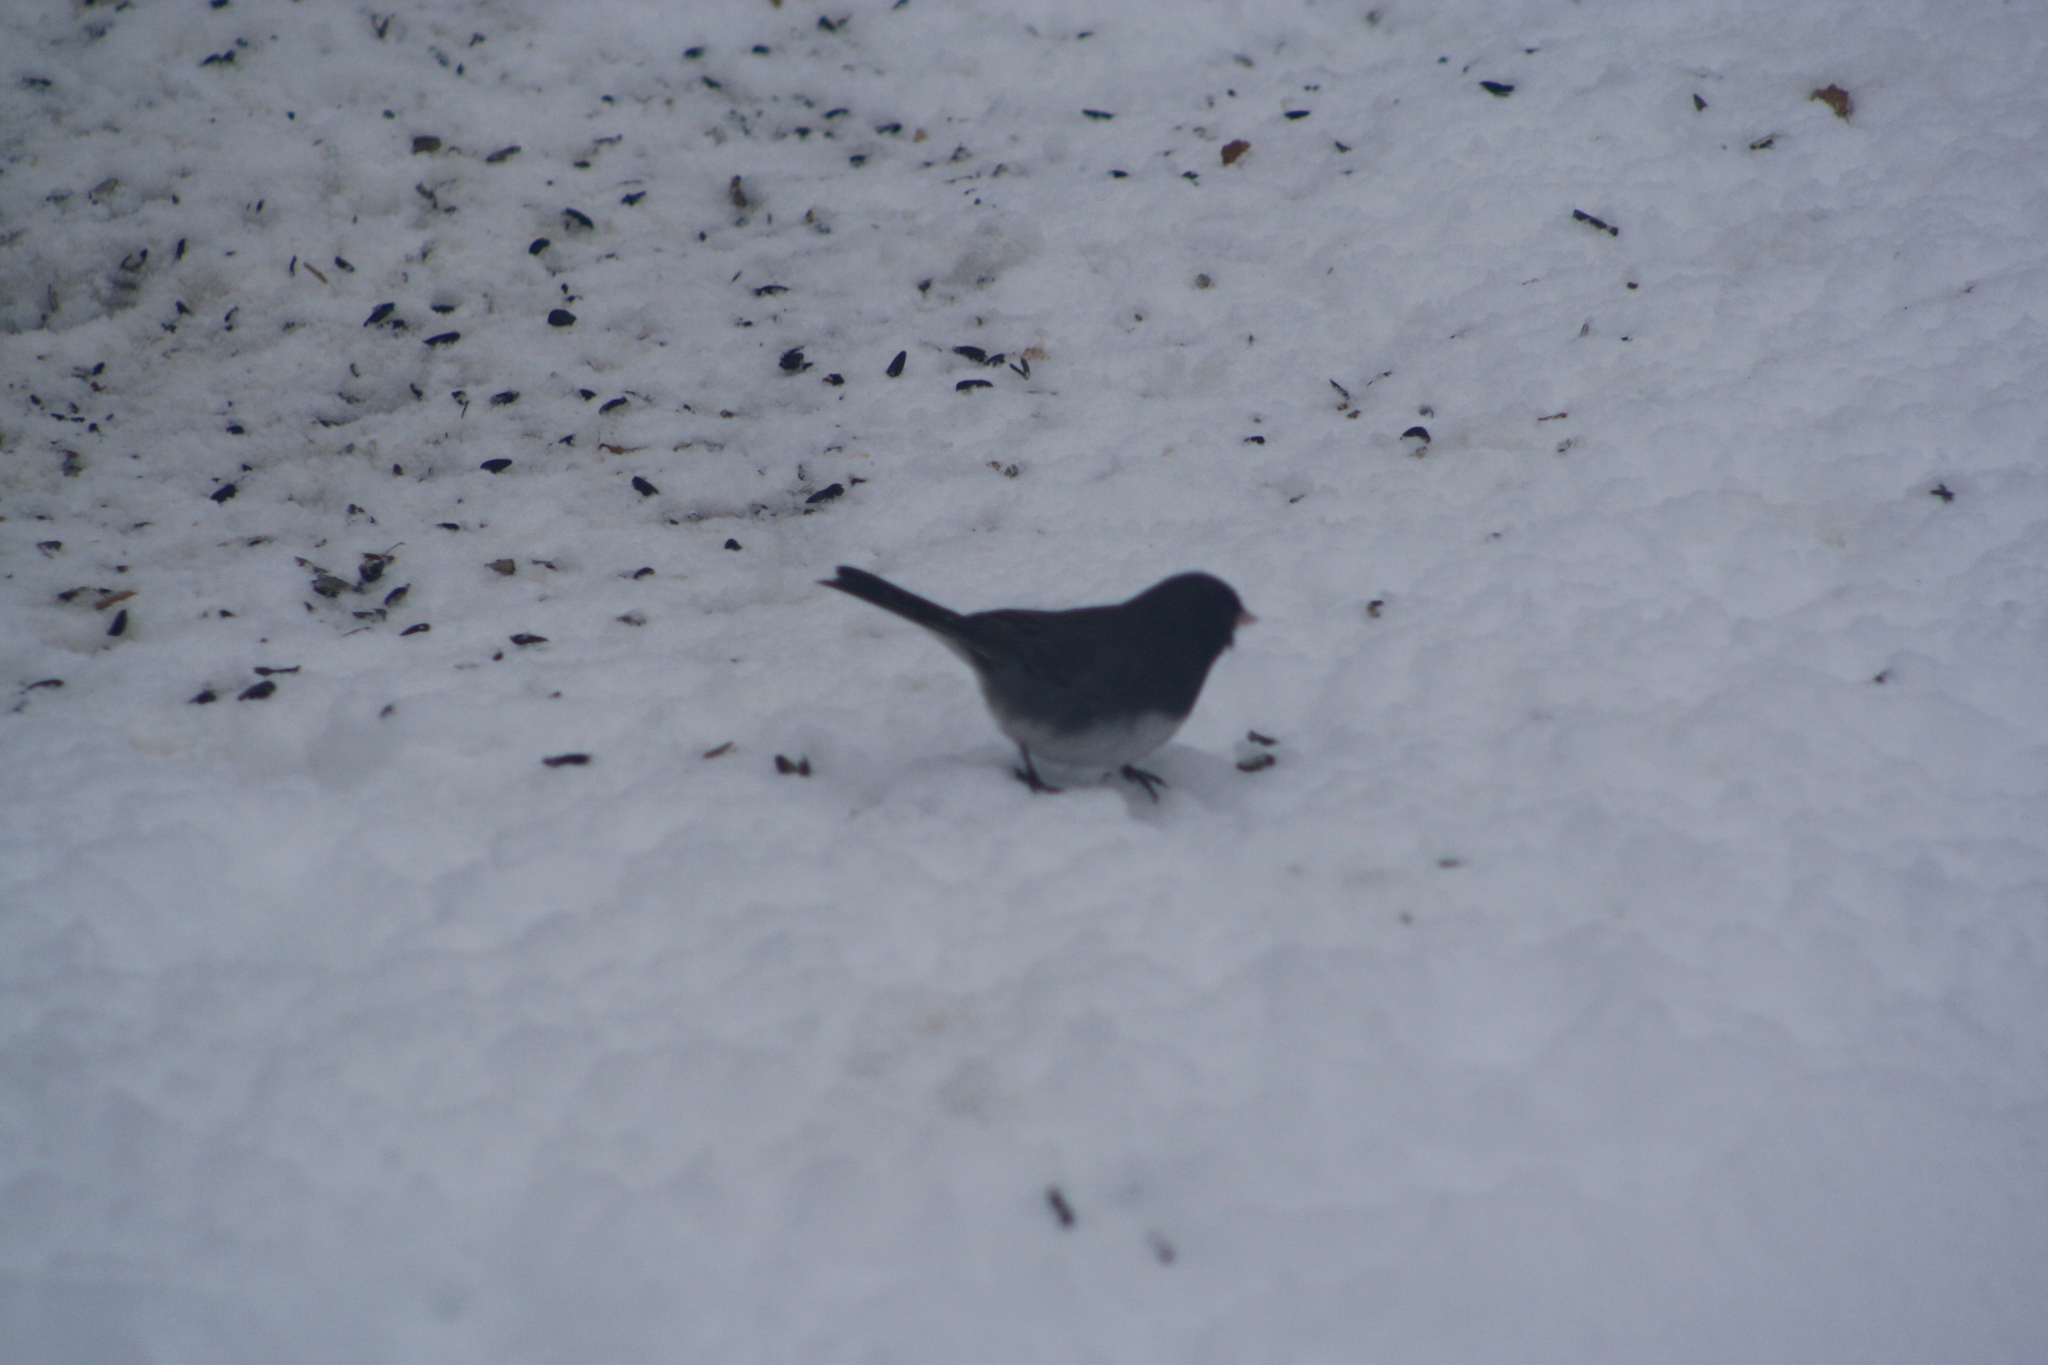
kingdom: Animalia
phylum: Chordata
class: Aves
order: Passeriformes
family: Passerellidae
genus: Junco
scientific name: Junco hyemalis
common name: Dark-eyed junco
